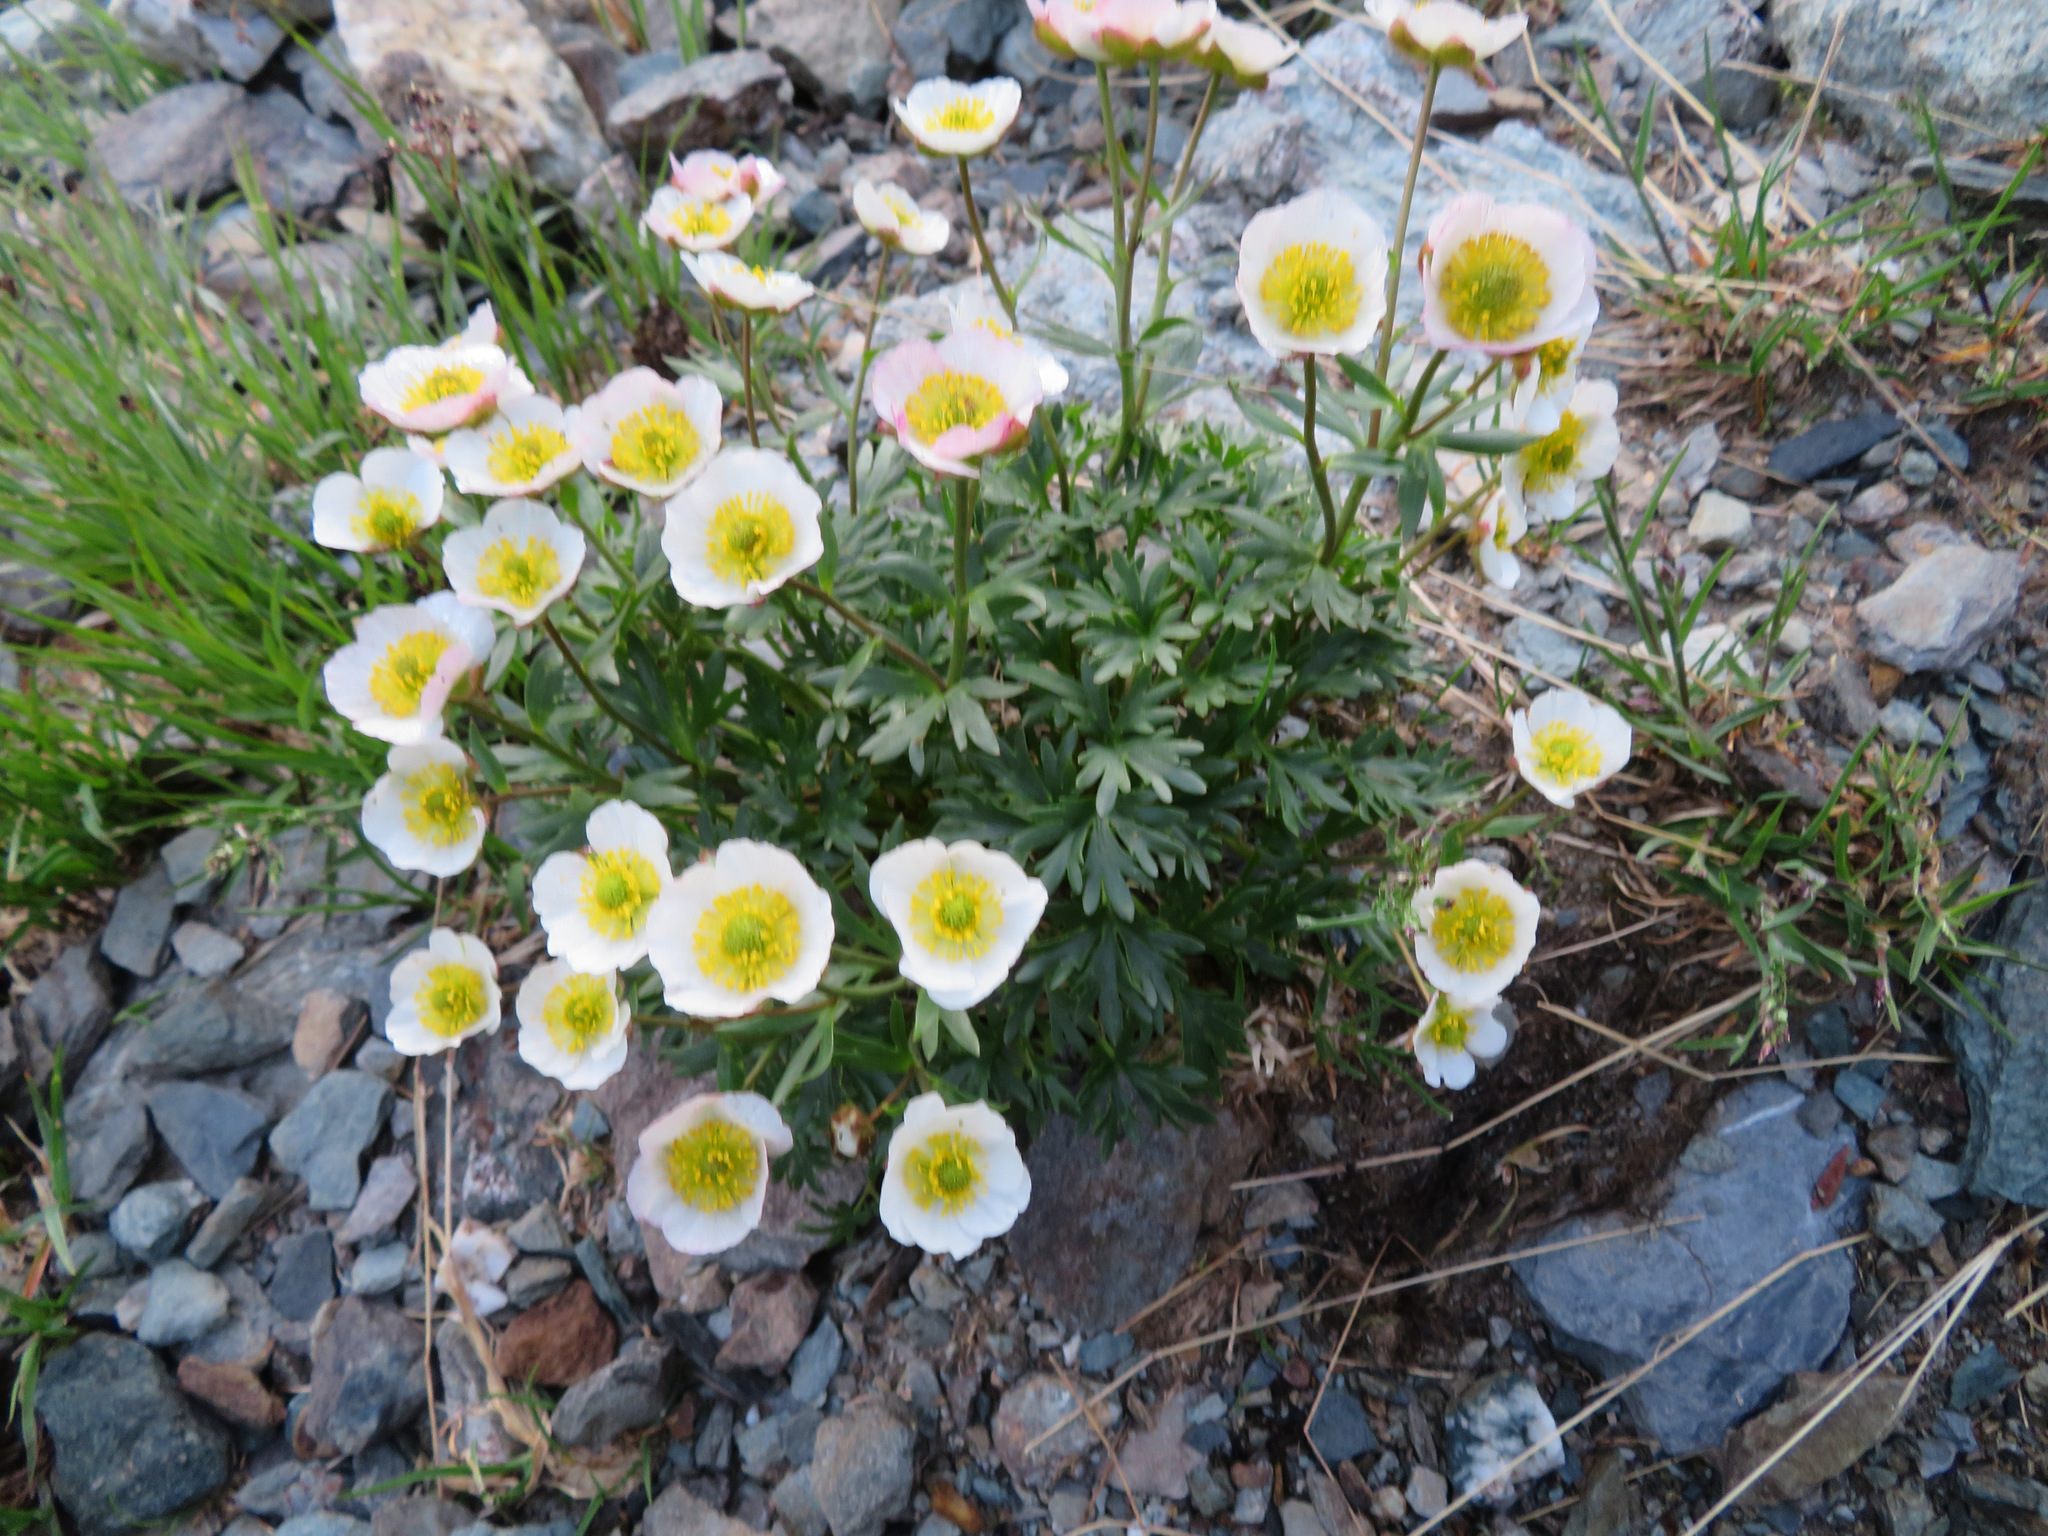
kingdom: Plantae
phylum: Tracheophyta
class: Magnoliopsida
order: Ranunculales
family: Ranunculaceae
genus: Ranunculus
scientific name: Ranunculus glacialis
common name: Glacier buttercup
